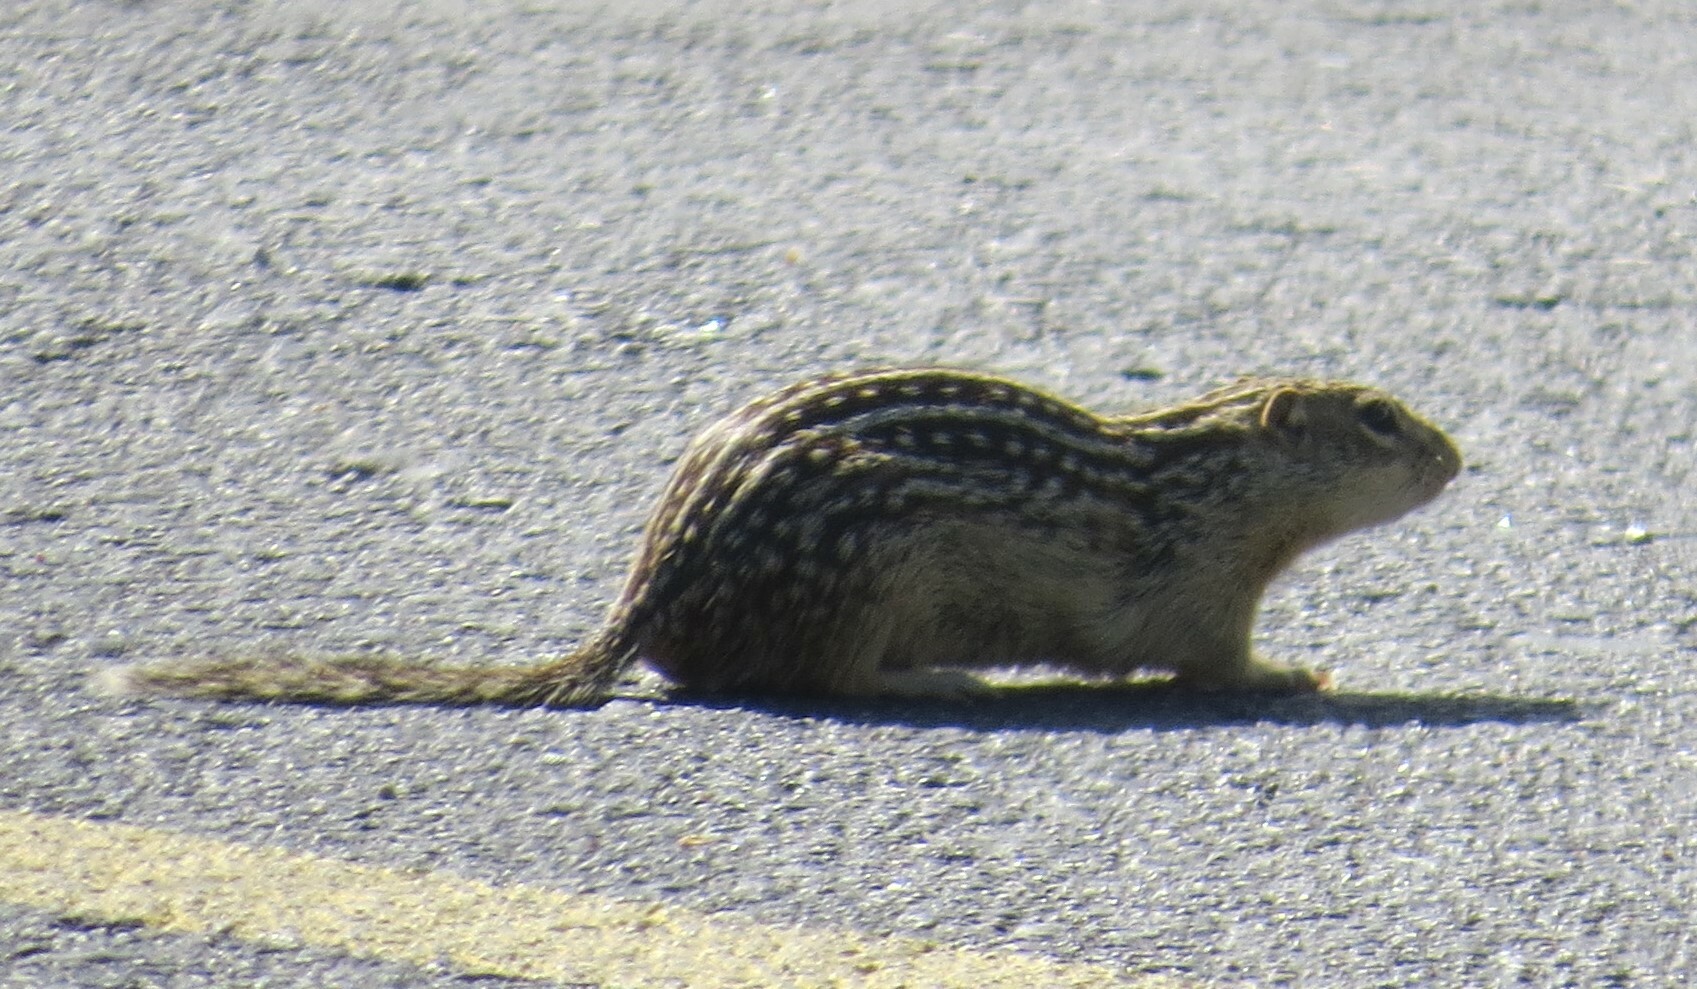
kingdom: Animalia
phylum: Chordata
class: Mammalia
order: Rodentia
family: Sciuridae
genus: Ictidomys
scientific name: Ictidomys tridecemlineatus
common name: Thirteen-lined ground squirrel
